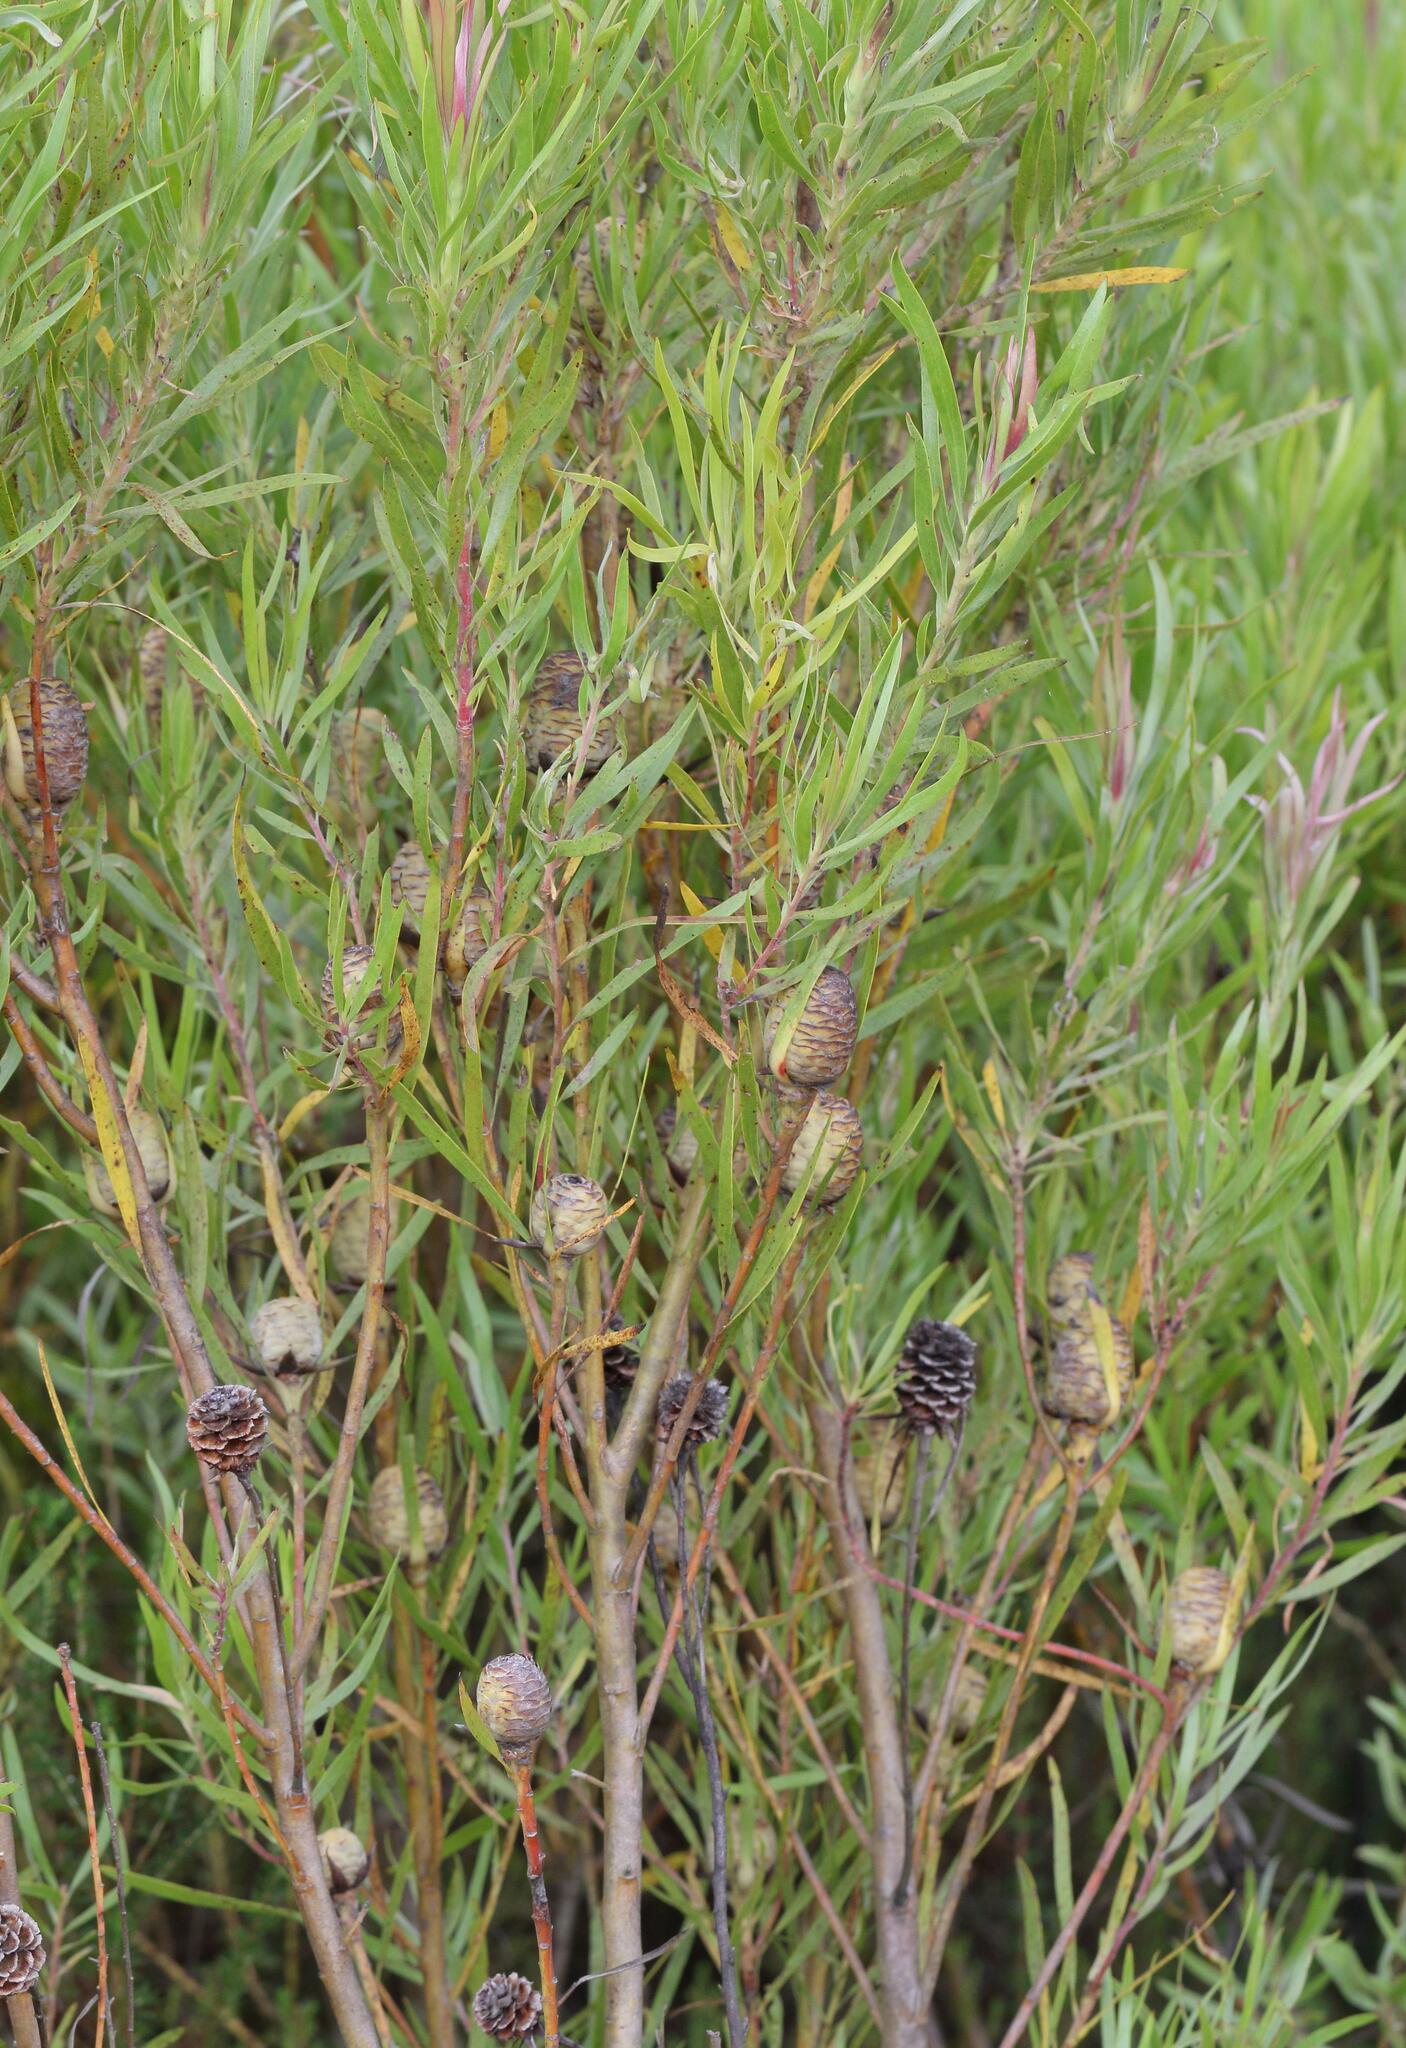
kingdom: Plantae
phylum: Tracheophyta
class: Magnoliopsida
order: Proteales
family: Proteaceae
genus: Leucadendron
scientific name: Leucadendron eucalyptifolium
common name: Gum-leaved conebush
